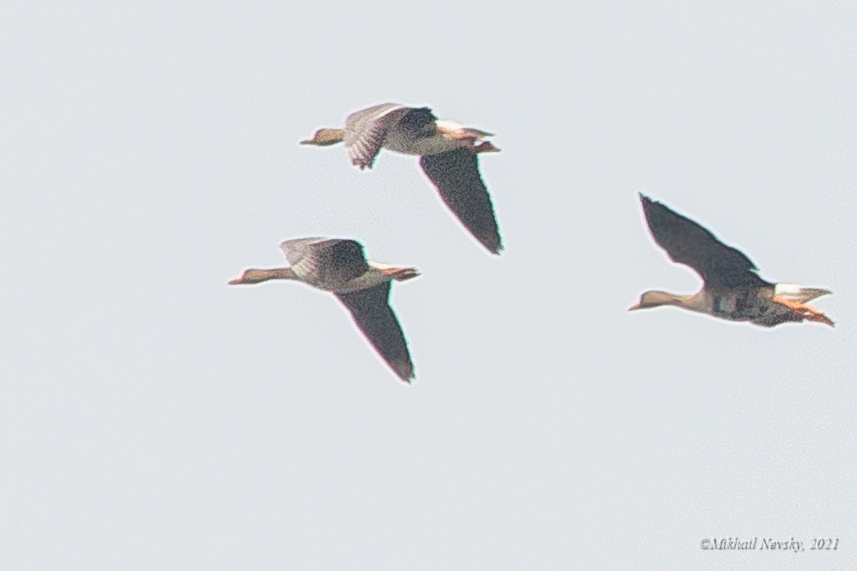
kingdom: Animalia
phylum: Chordata
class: Aves
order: Anseriformes
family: Anatidae
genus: Anser
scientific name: Anser albifrons
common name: Greater white-fronted goose
